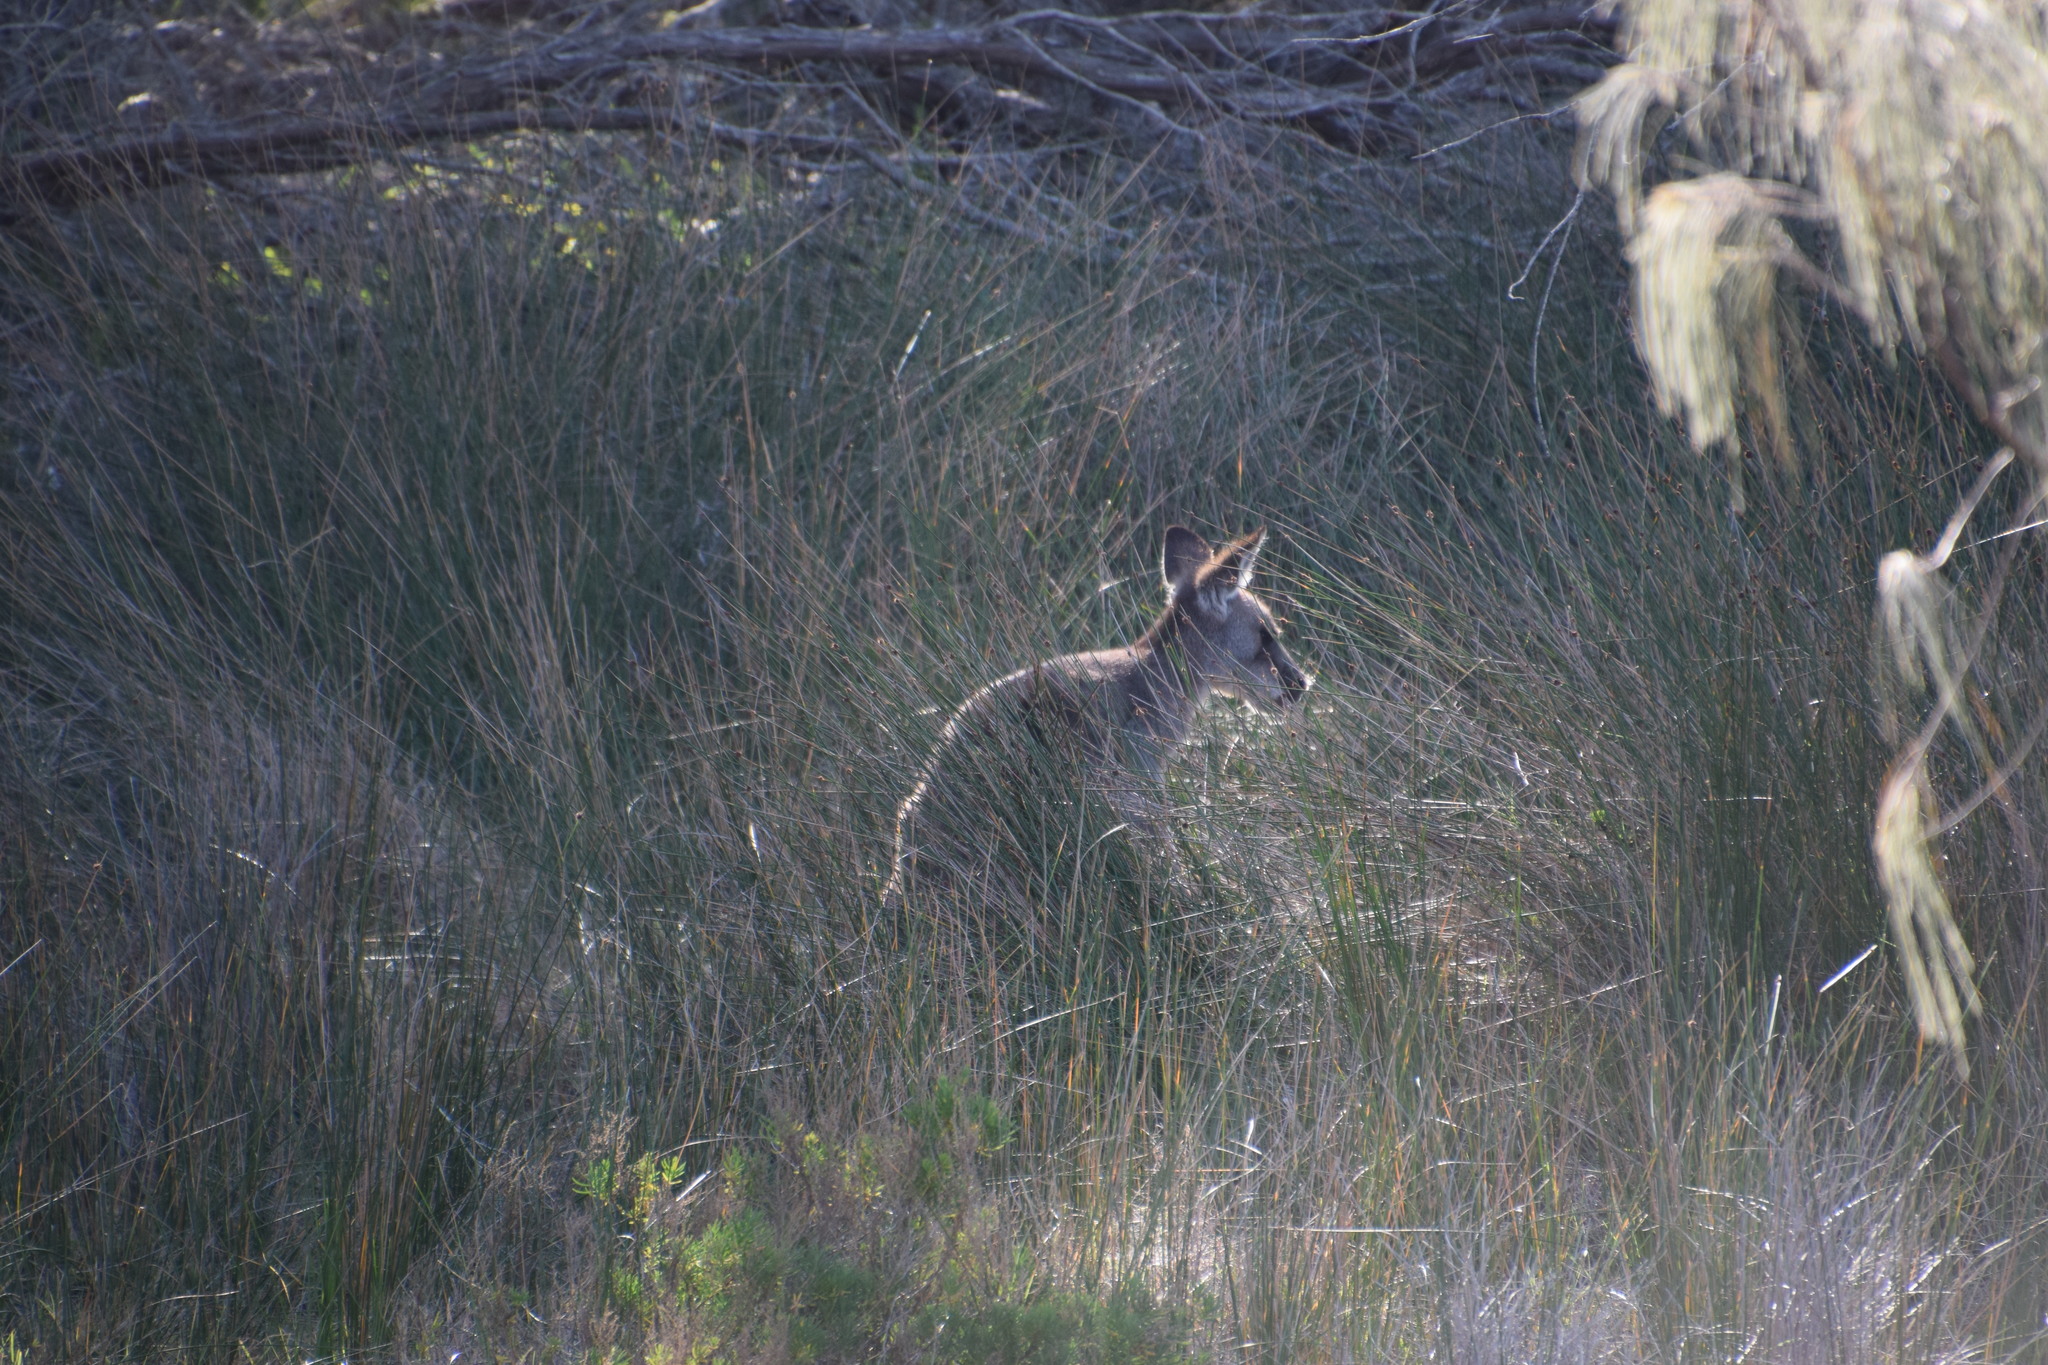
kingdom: Animalia
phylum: Chordata
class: Mammalia
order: Diprotodontia
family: Macropodidae
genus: Macropus
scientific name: Macropus giganteus
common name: Eastern grey kangaroo
